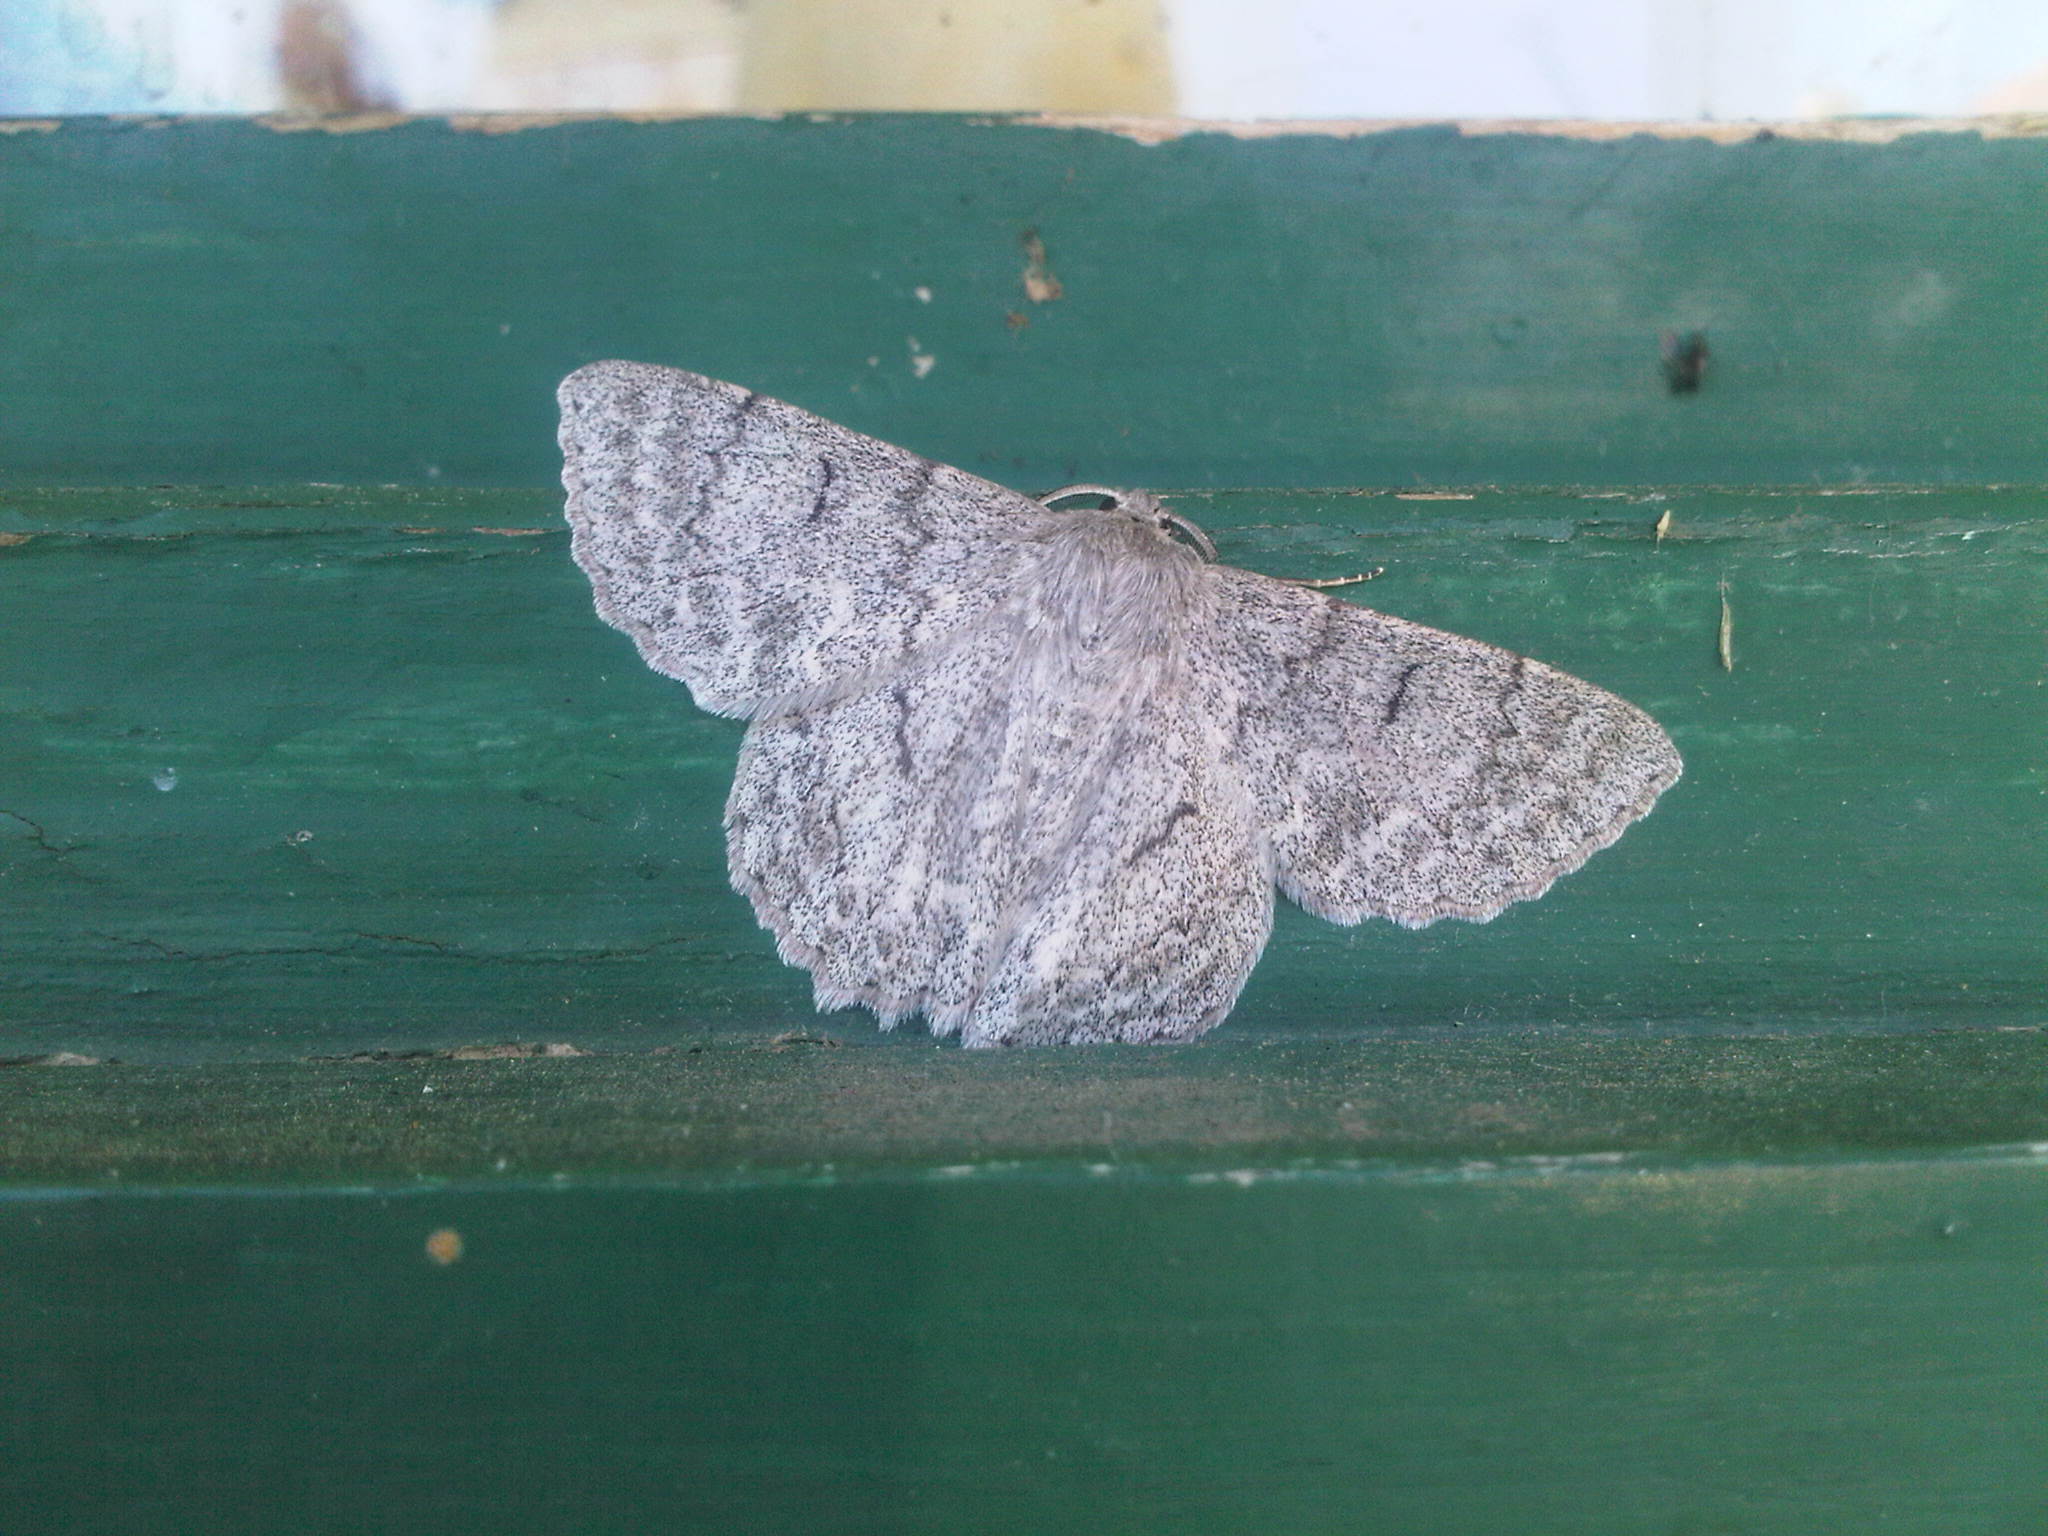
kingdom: Animalia
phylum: Arthropoda
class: Insecta
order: Lepidoptera
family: Geometridae
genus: Crypsiphona
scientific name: Crypsiphona ocultaria
